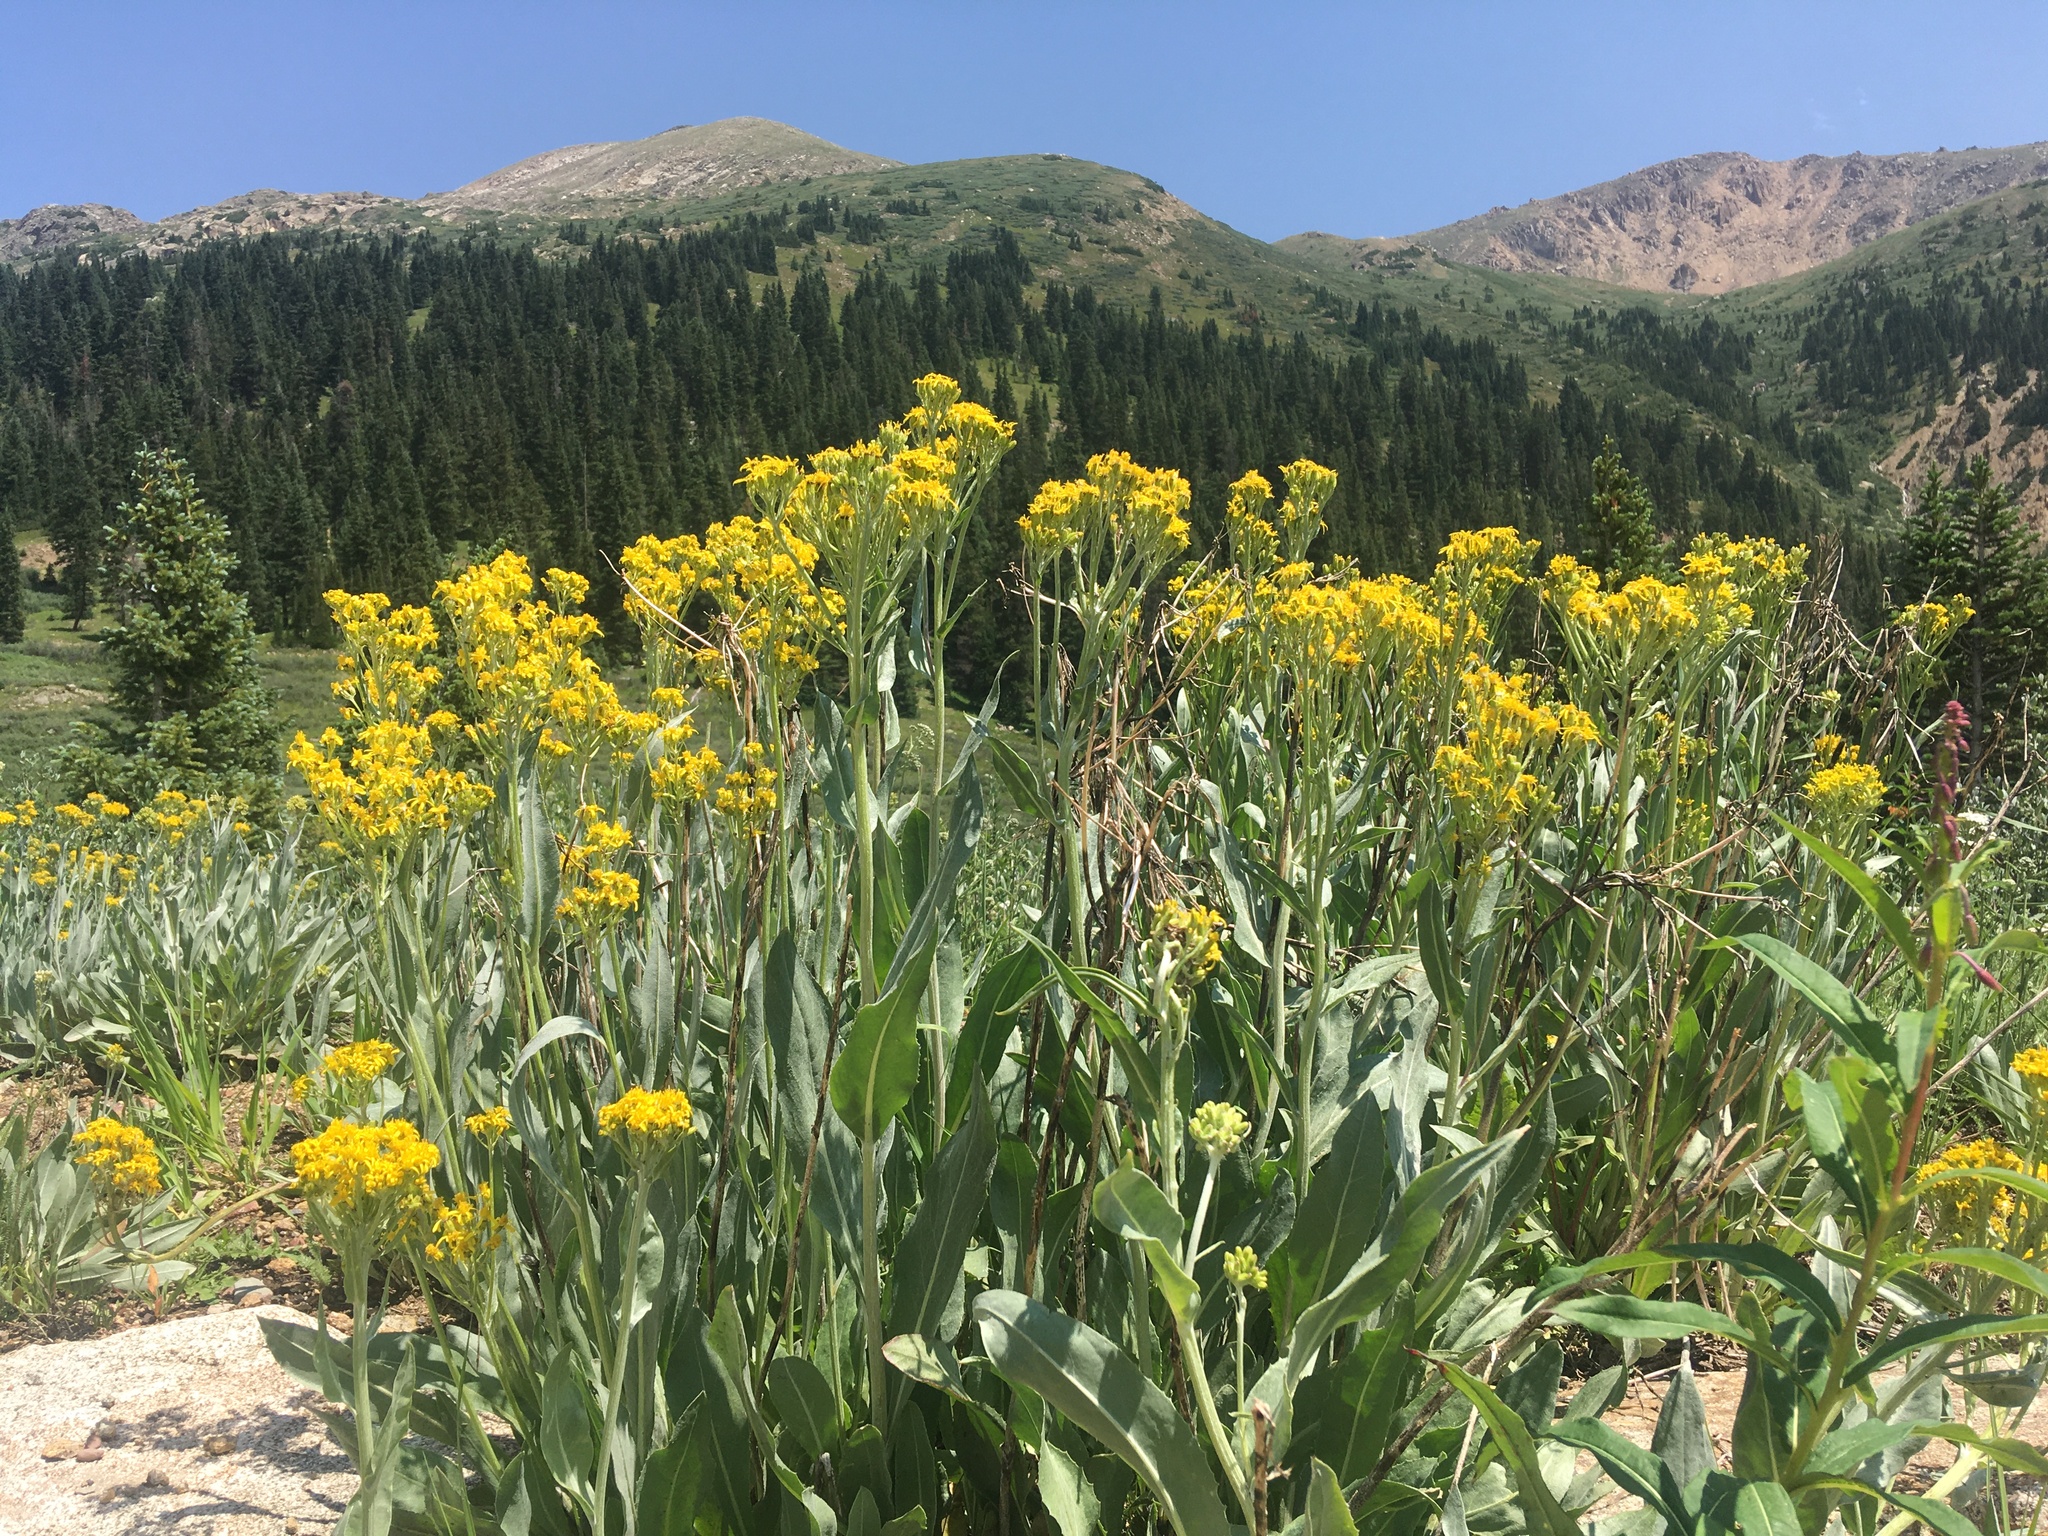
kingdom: Plantae
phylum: Tracheophyta
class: Magnoliopsida
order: Asterales
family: Asteraceae
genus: Senecio
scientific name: Senecio atratus
